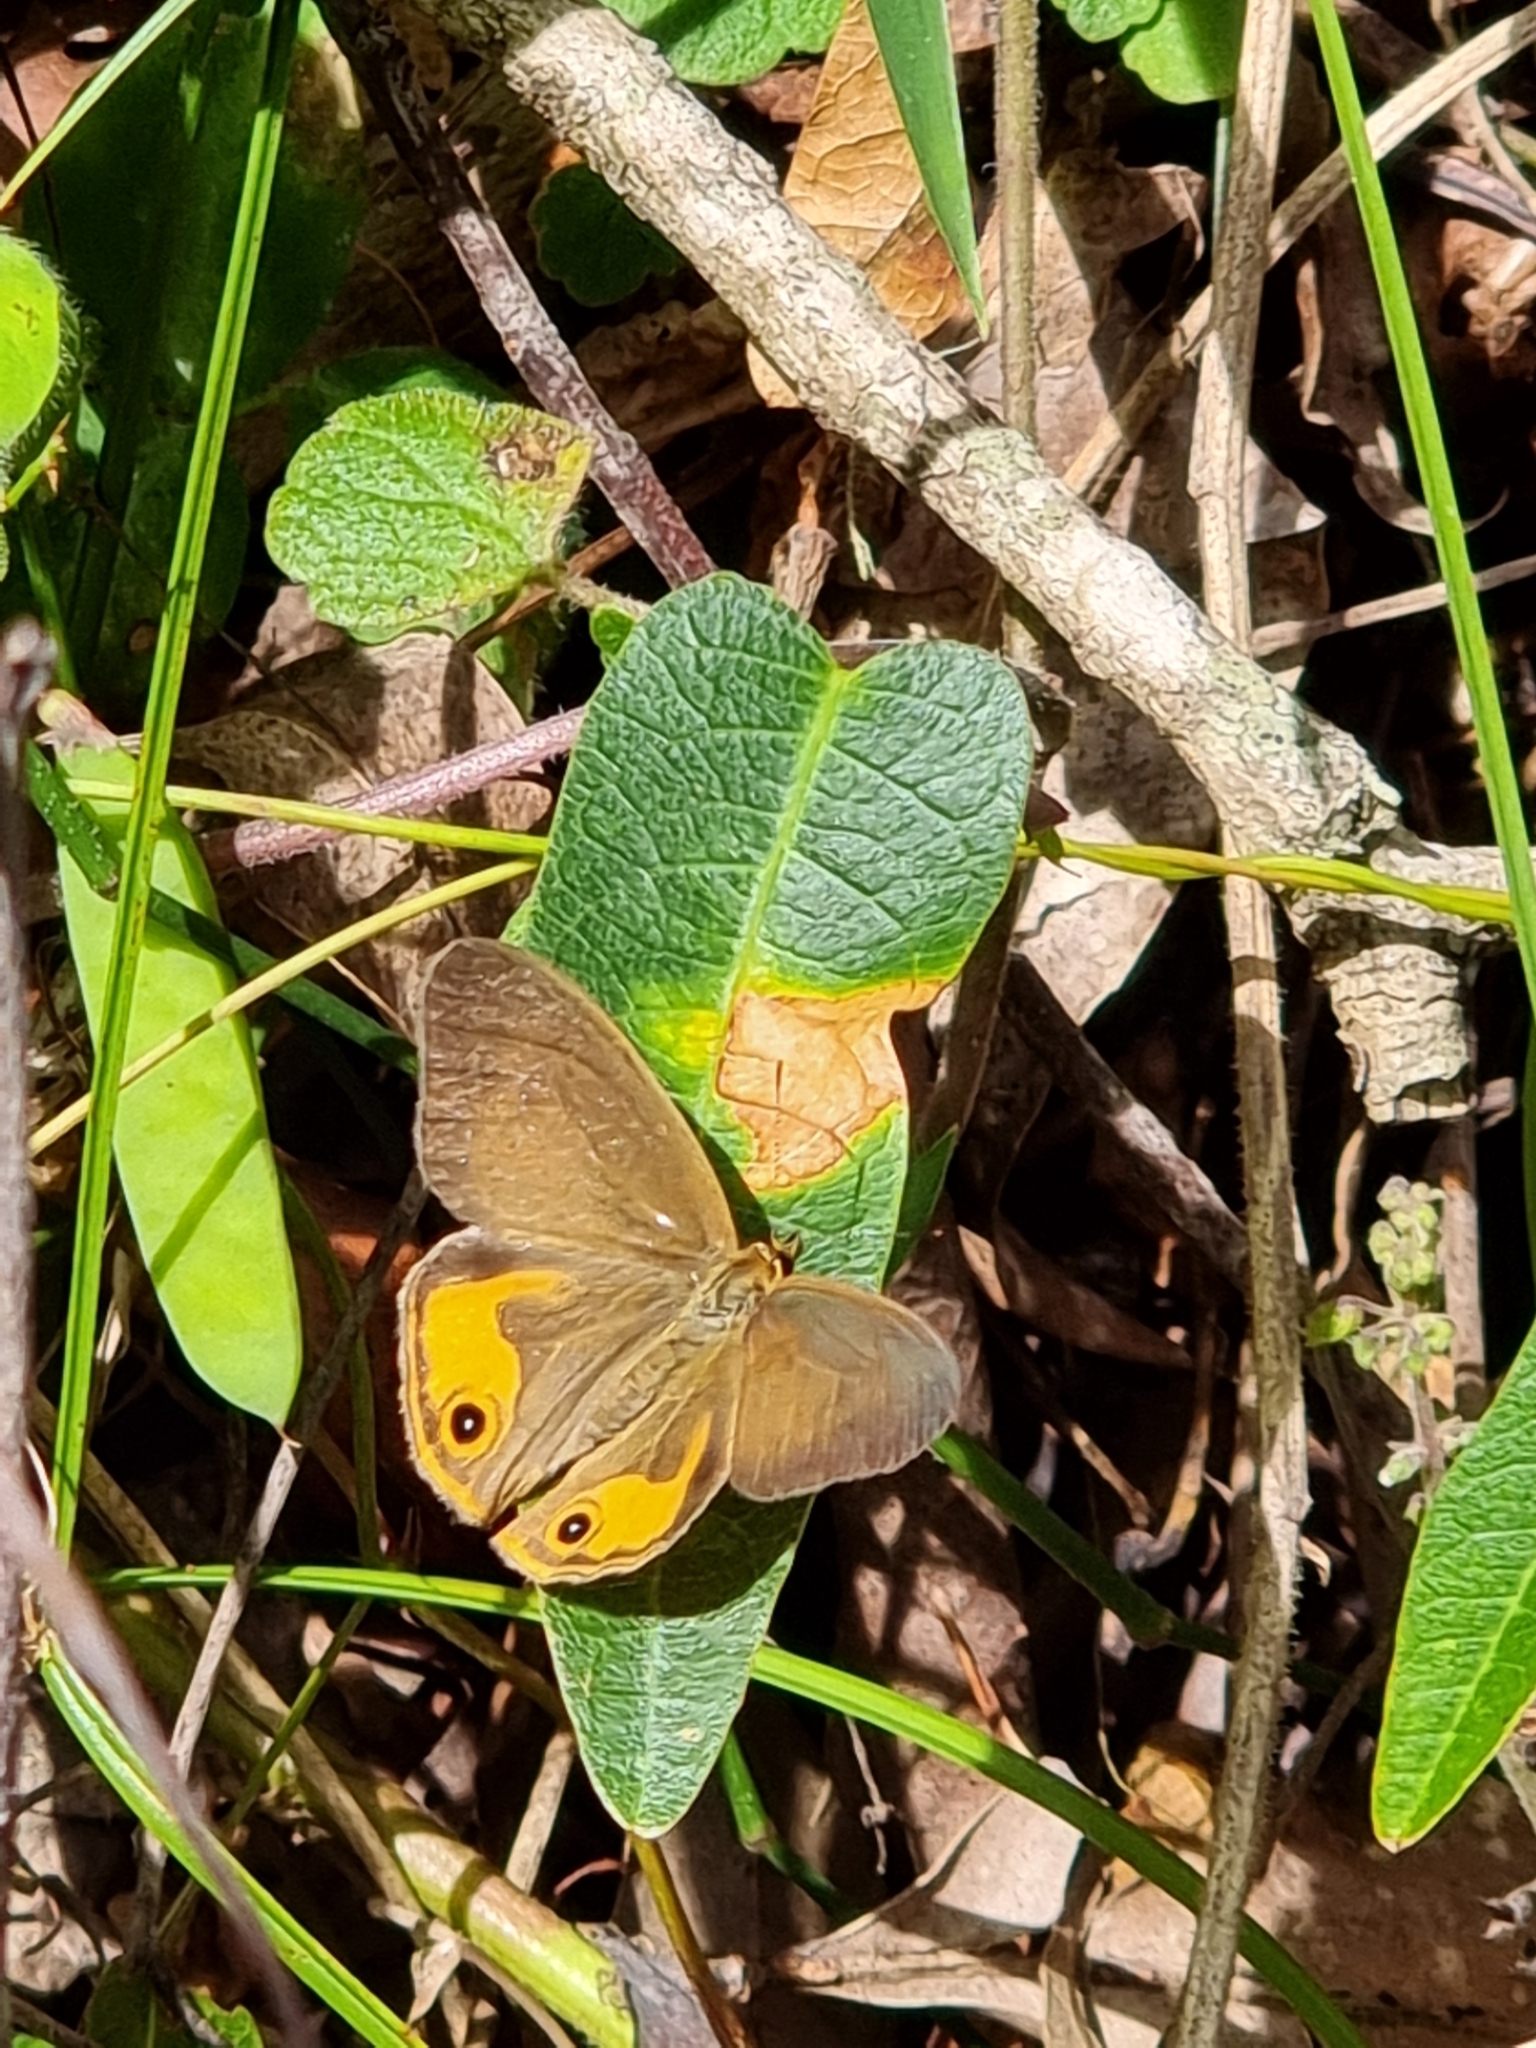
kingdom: Animalia
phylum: Arthropoda
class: Insecta
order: Lepidoptera
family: Nymphalidae
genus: Hypocysta
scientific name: Hypocysta metirius
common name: Brown ringlet
